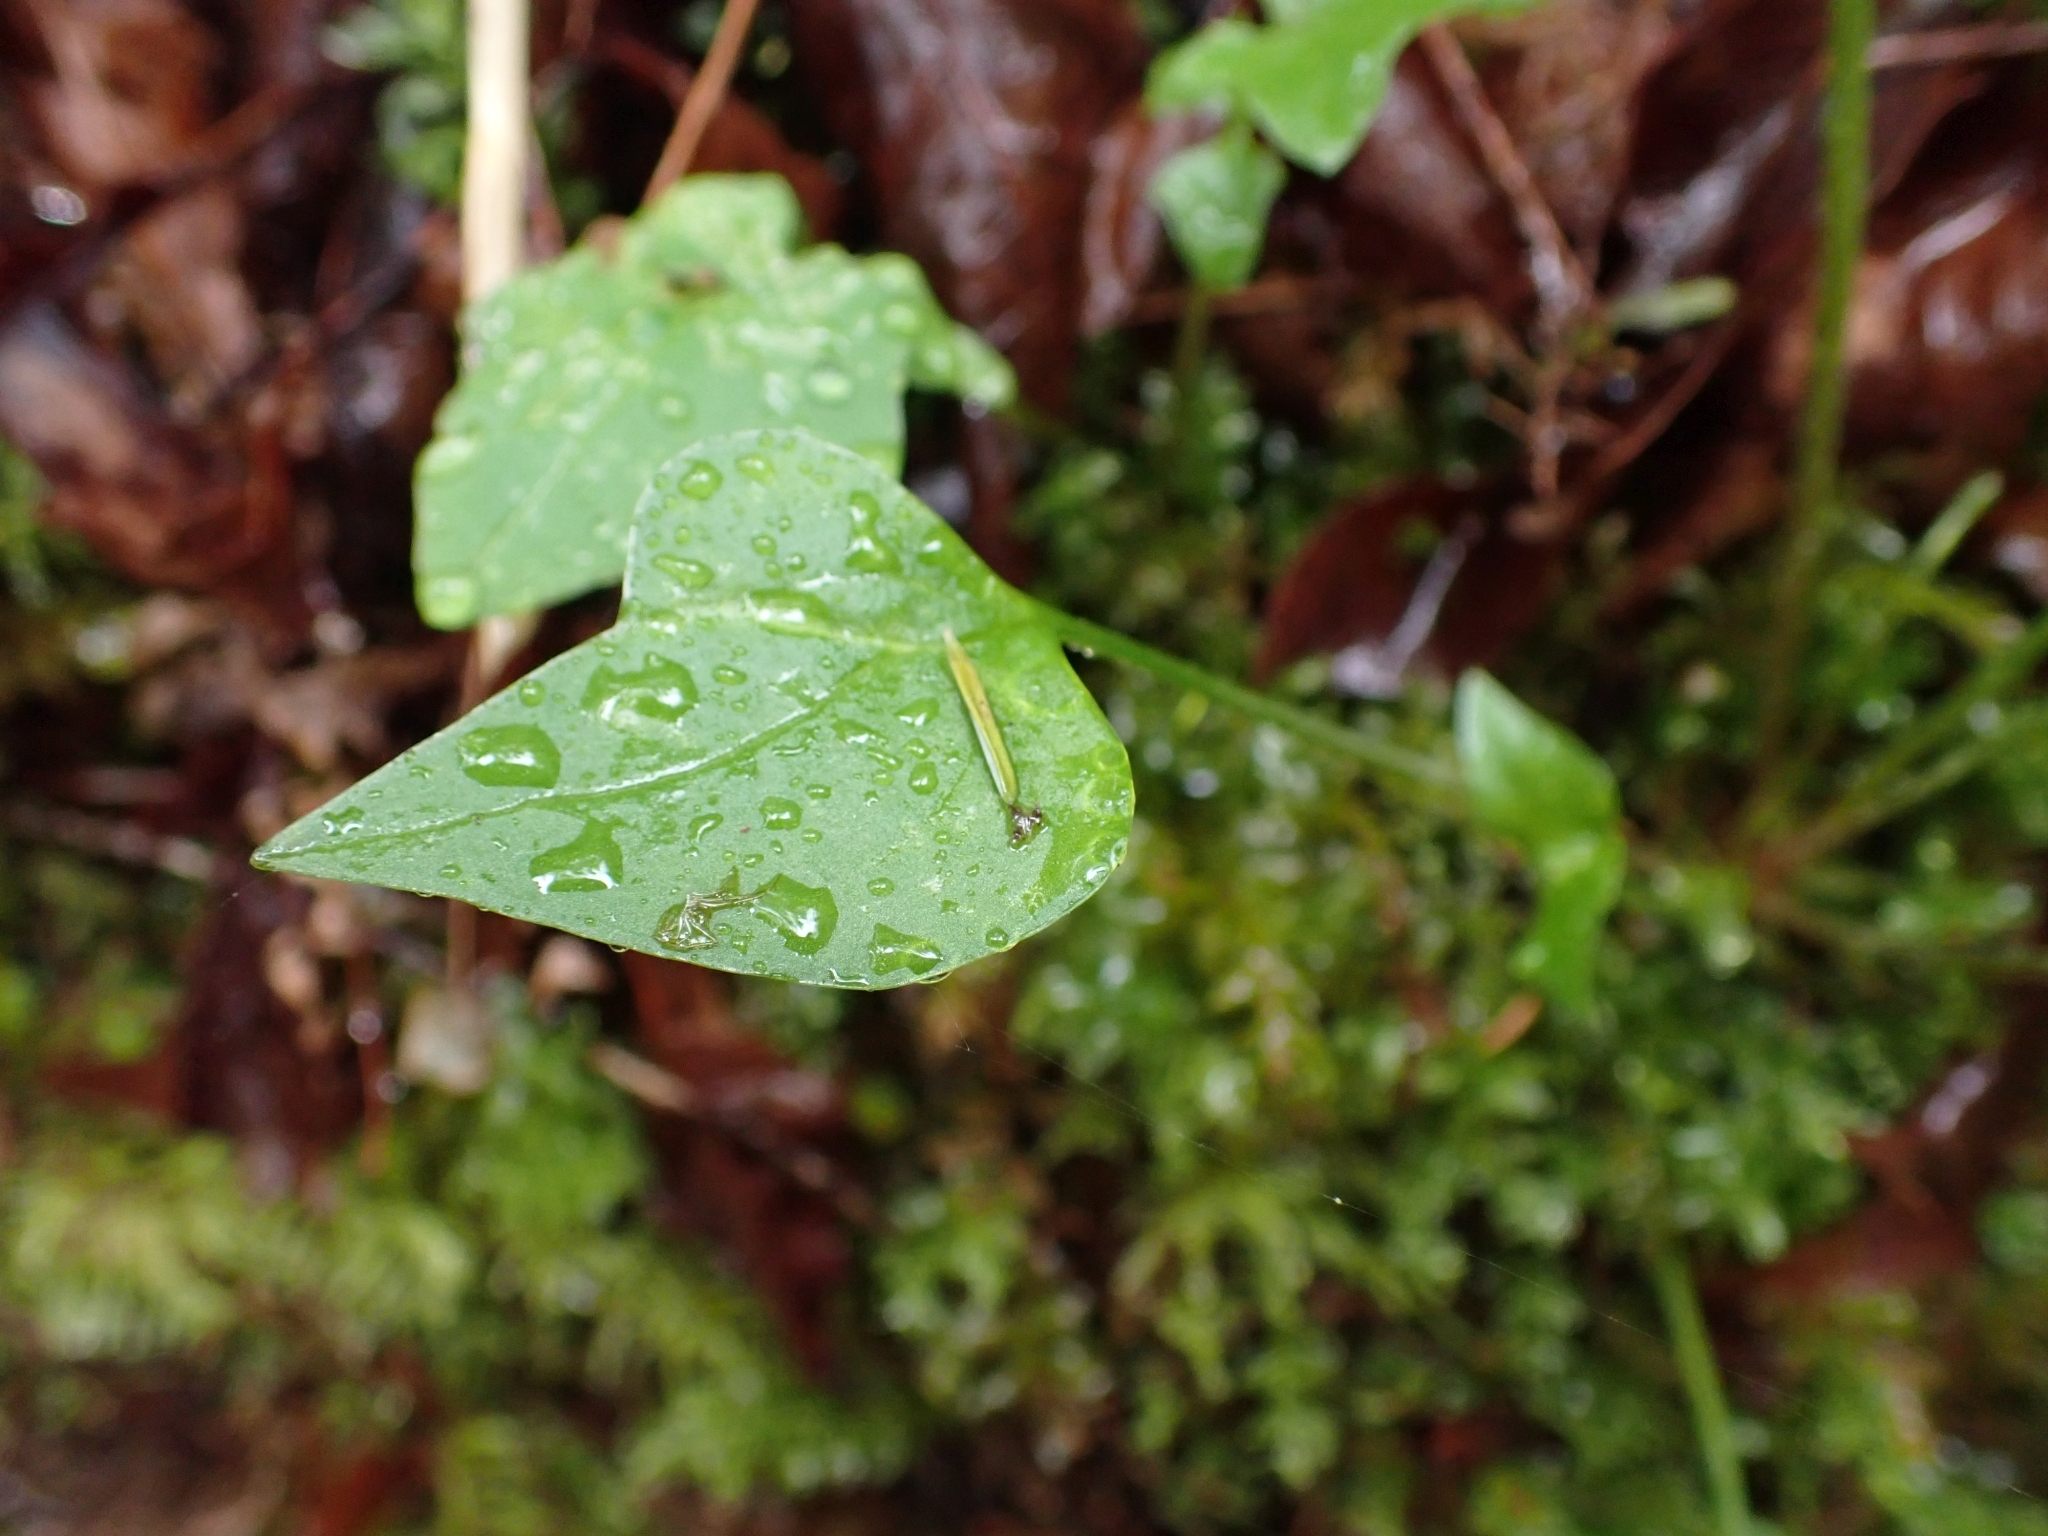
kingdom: Plantae
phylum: Tracheophyta
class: Magnoliopsida
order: Caryophyllales
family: Montiaceae
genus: Claytonia
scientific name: Claytonia sibirica
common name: Pink purslane
